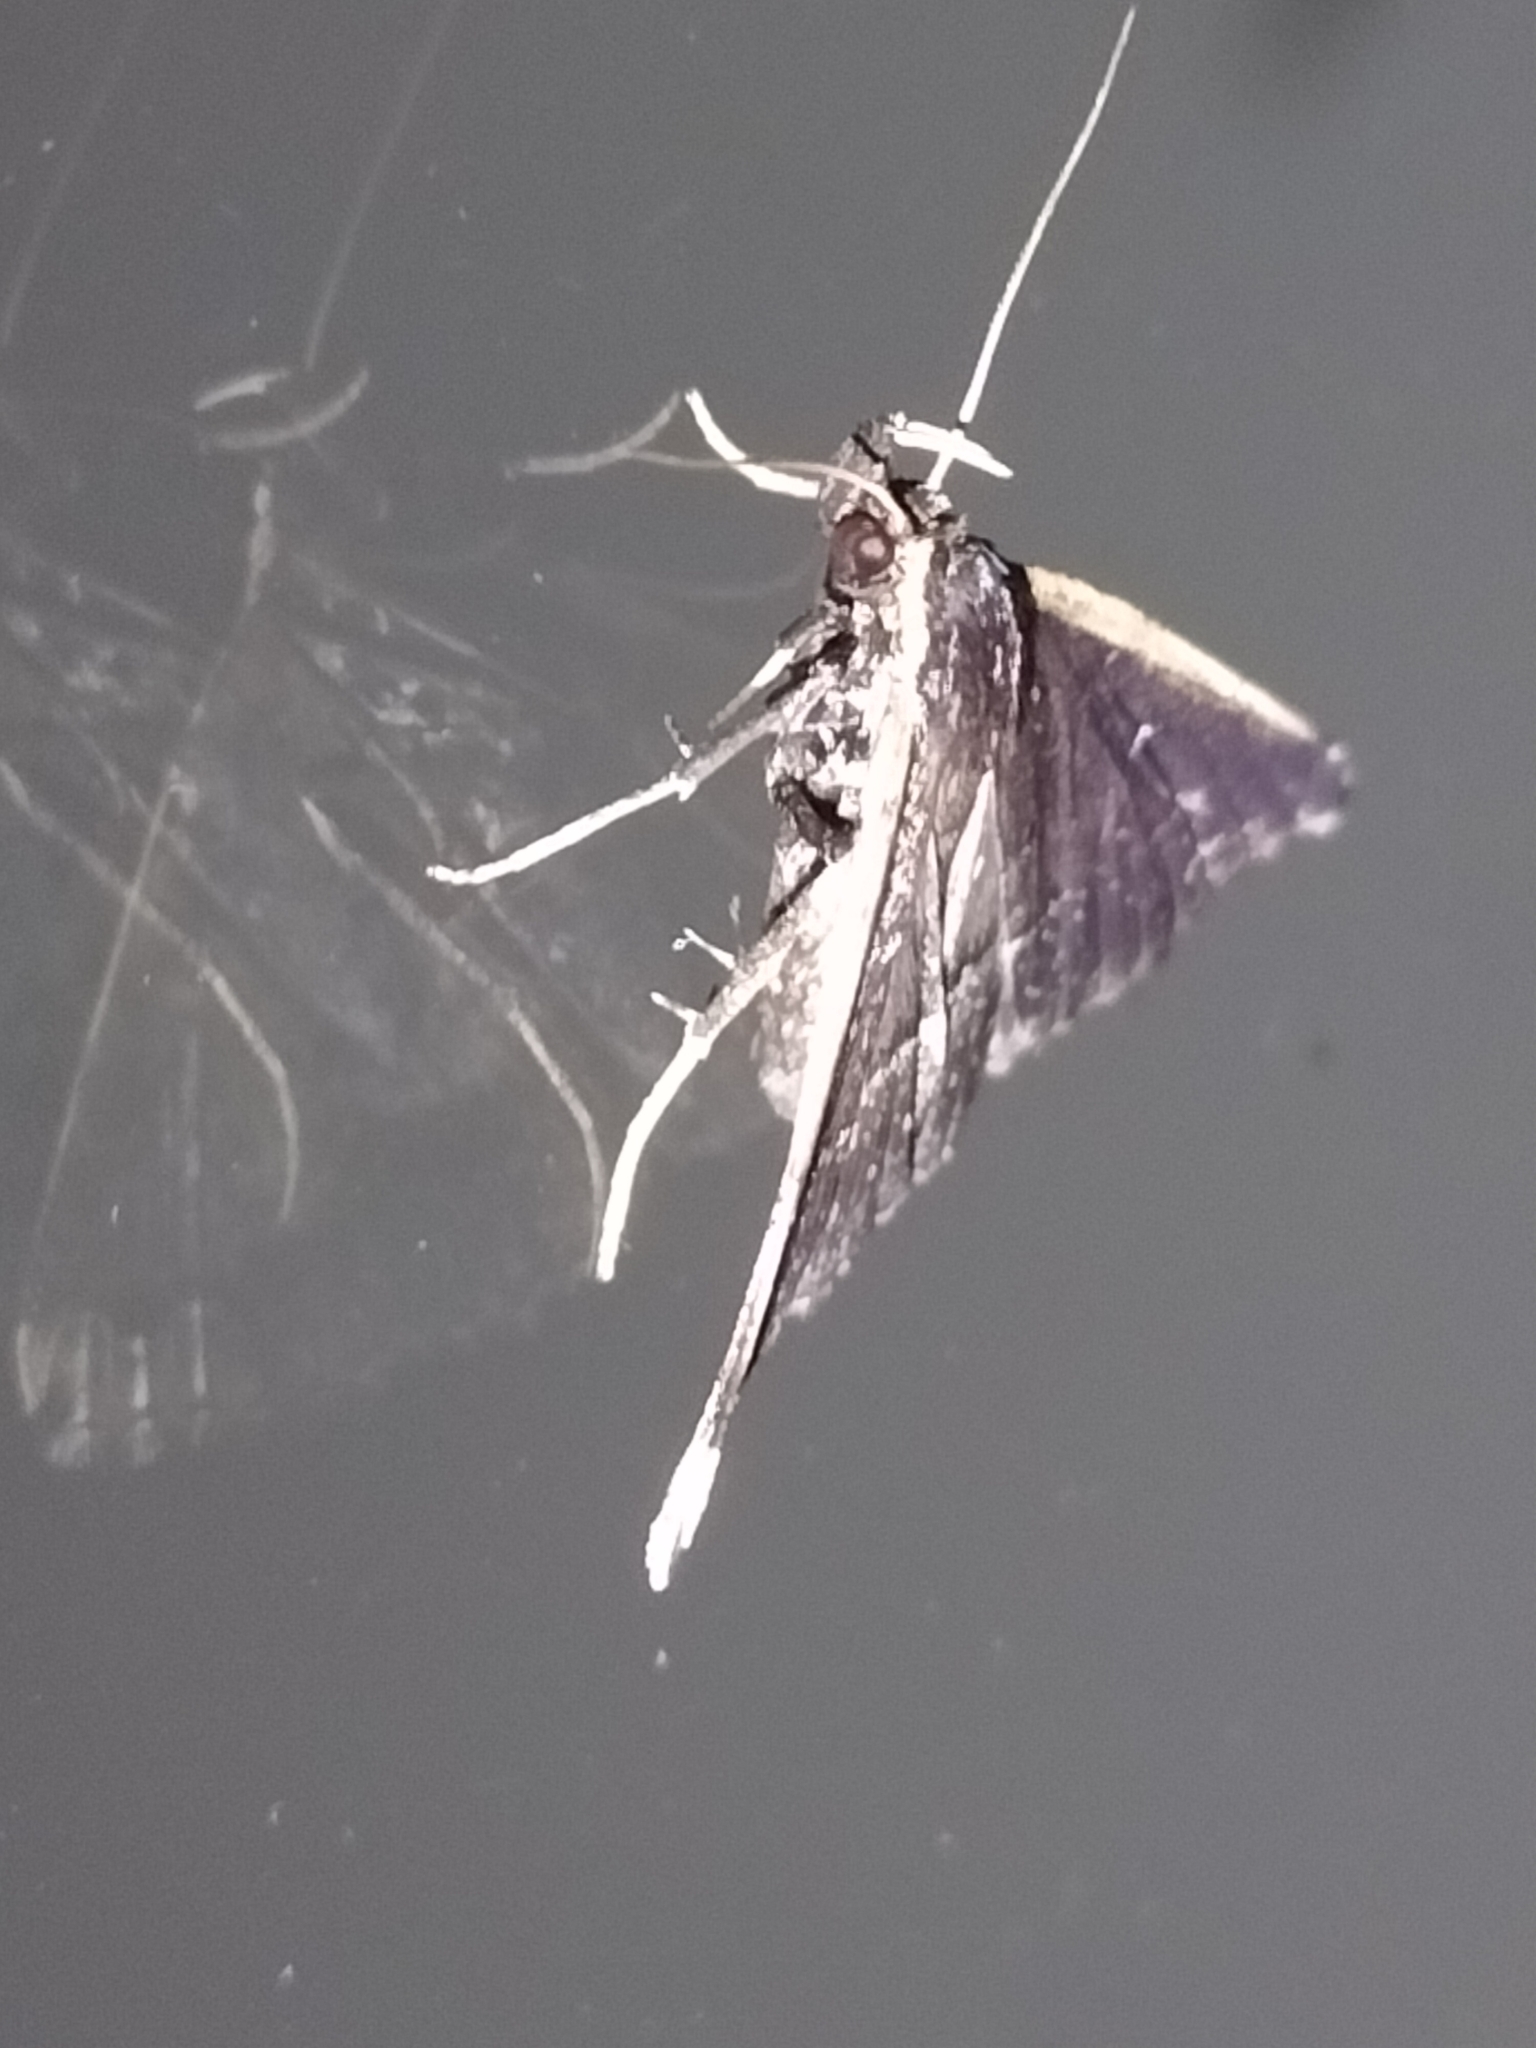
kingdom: Animalia
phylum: Arthropoda
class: Insecta
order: Lepidoptera
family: Erebidae
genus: Adrapsa
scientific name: Adrapsa ablualis
